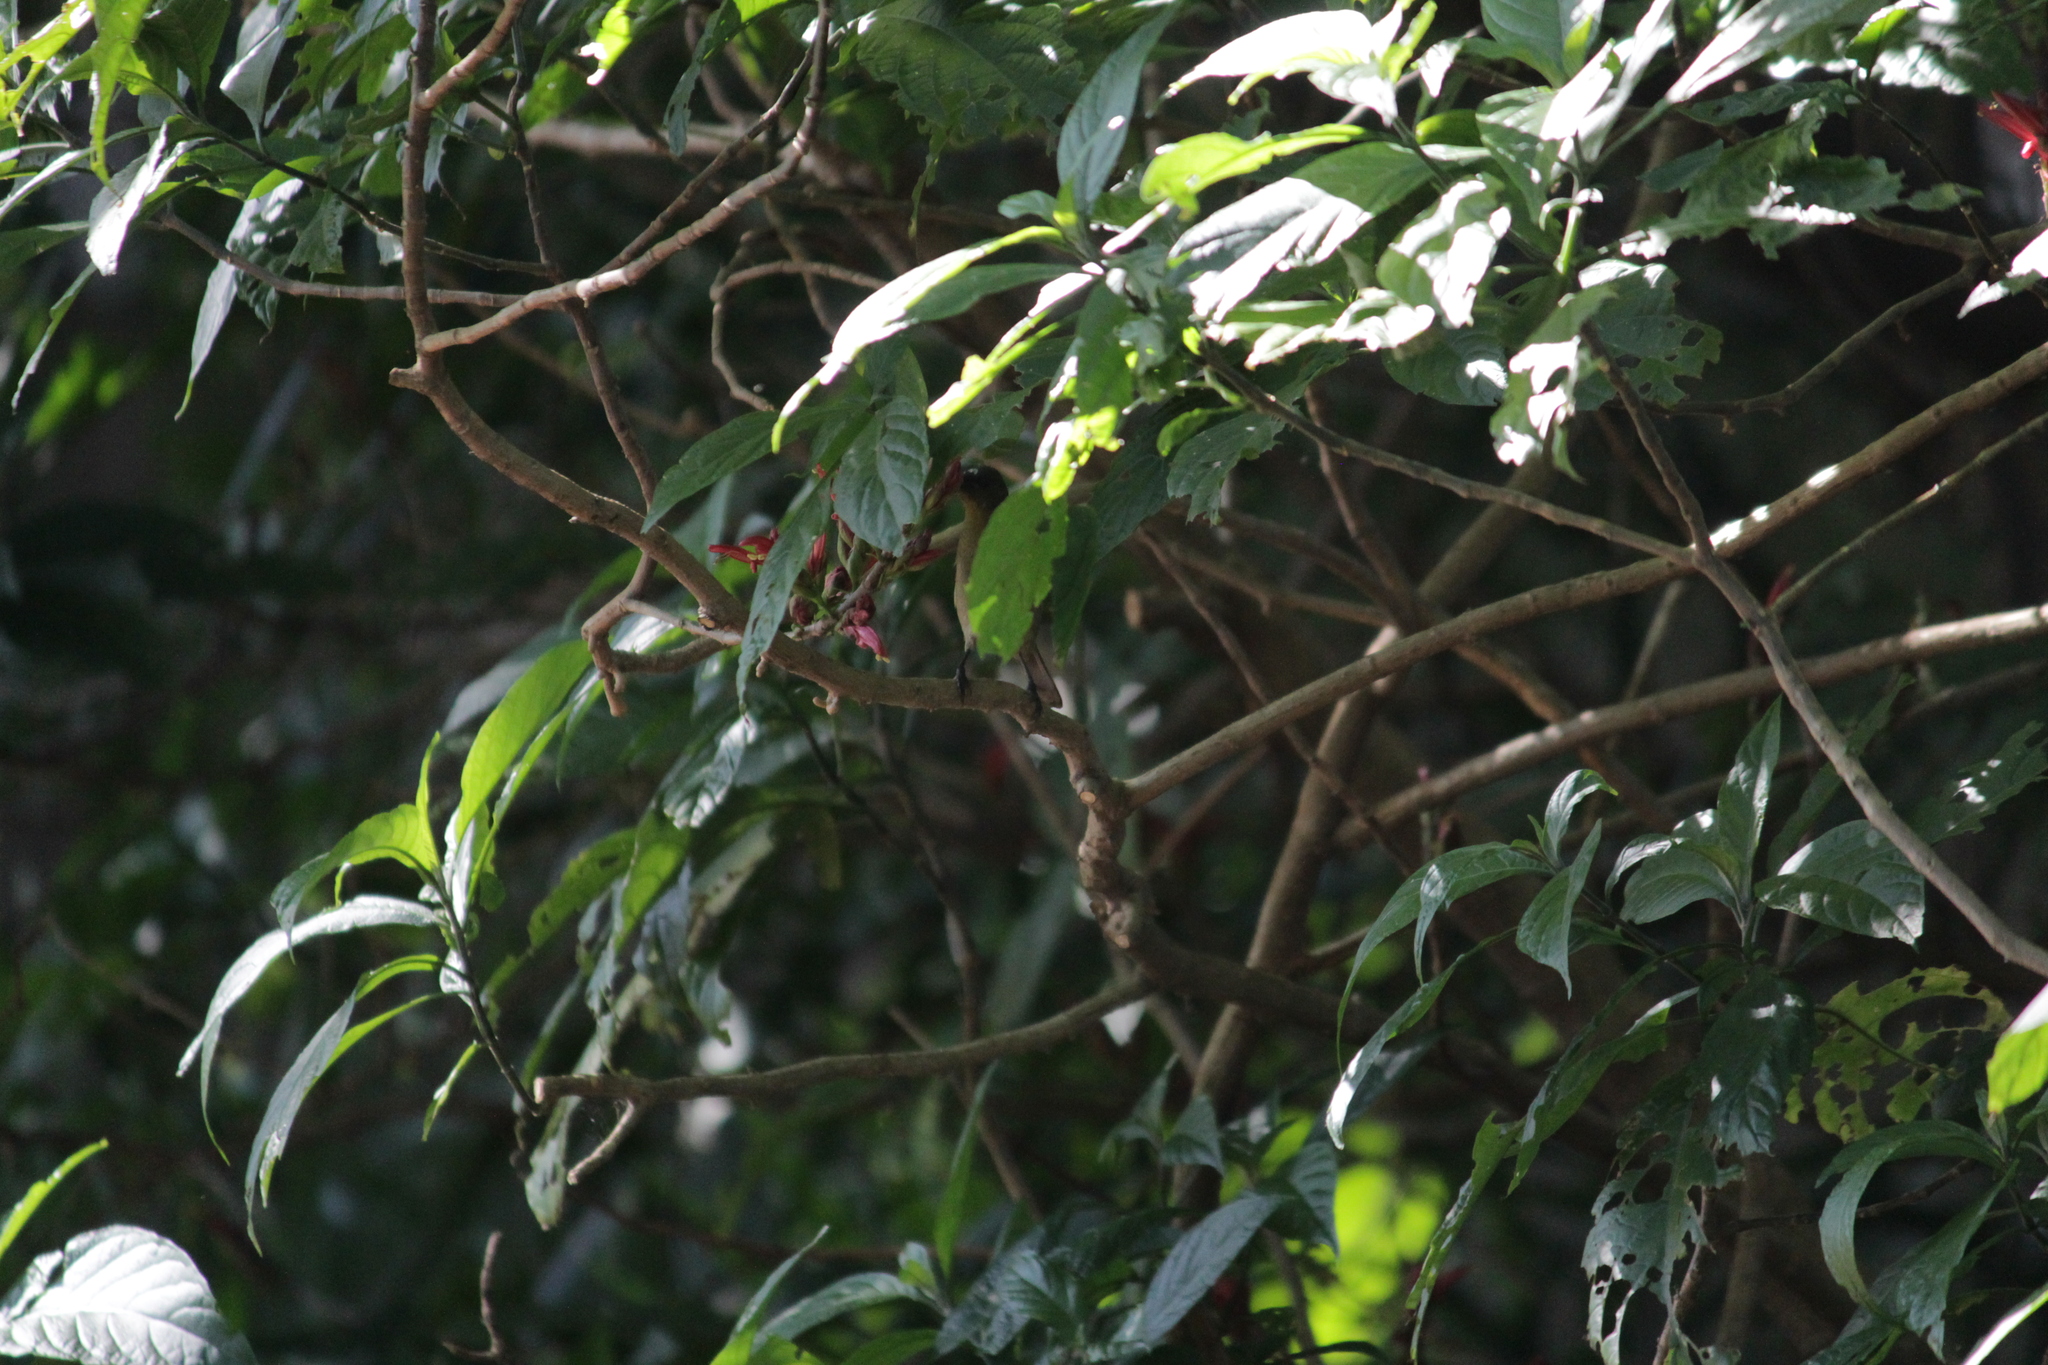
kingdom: Animalia
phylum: Chordata
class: Aves
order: Passeriformes
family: Nectariniidae
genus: Cyanomitra
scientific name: Cyanomitra olivacea
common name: Olive sunbird
